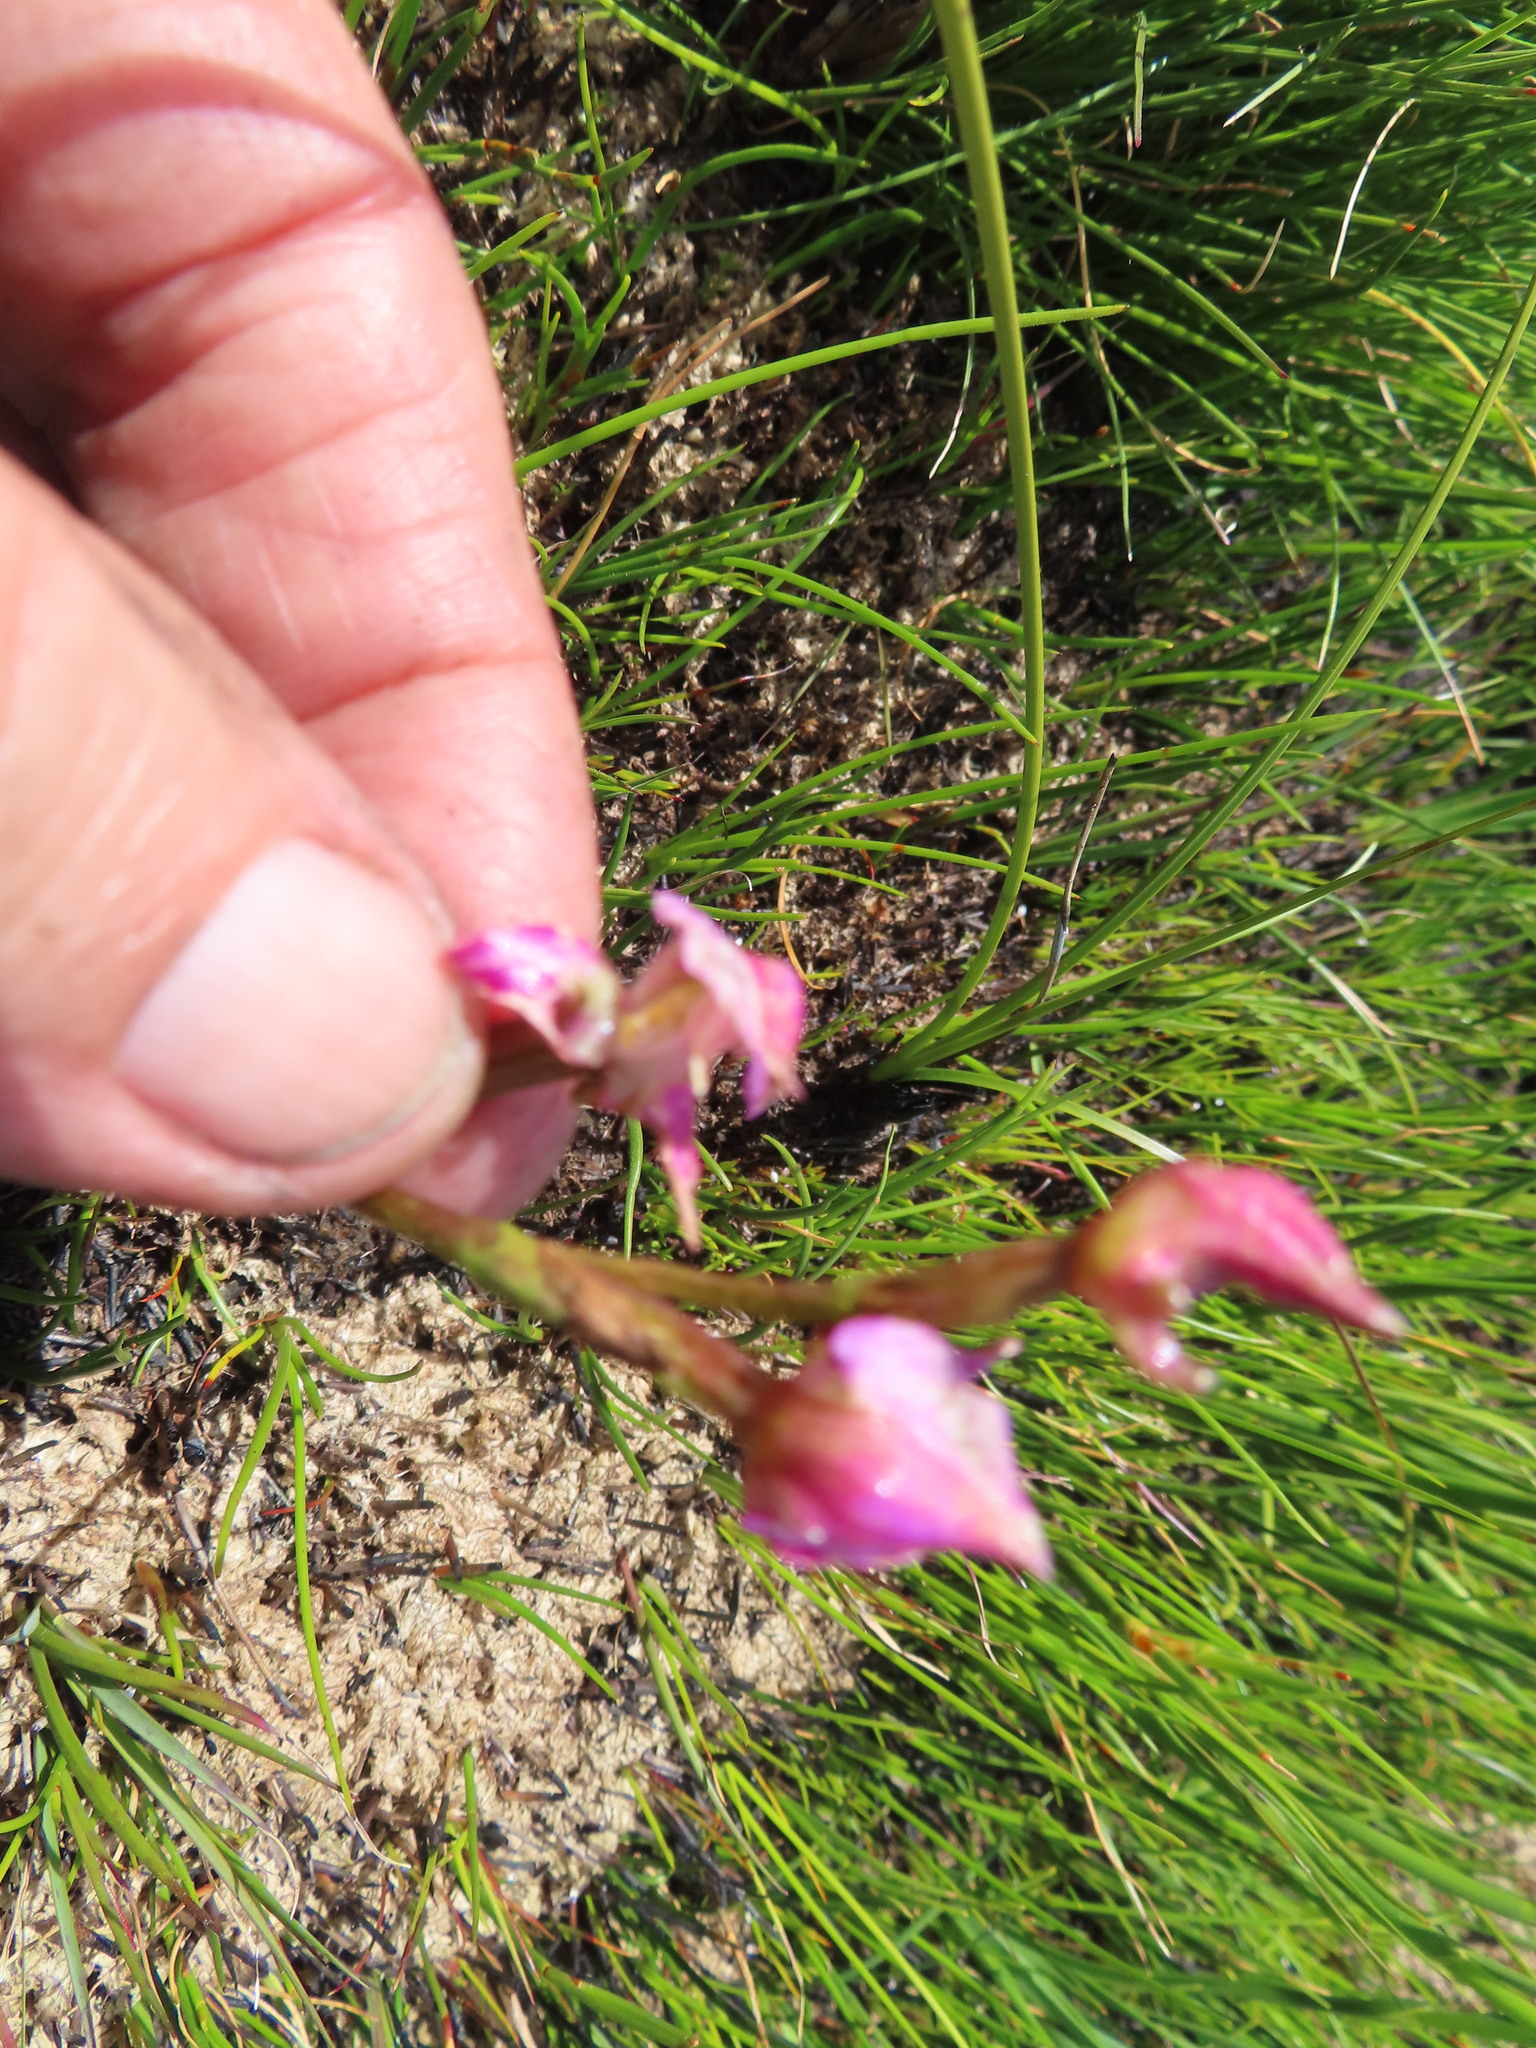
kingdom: Plantae
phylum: Tracheophyta
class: Liliopsida
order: Asparagales
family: Orchidaceae
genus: Disperis
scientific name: Disperis paludosa
